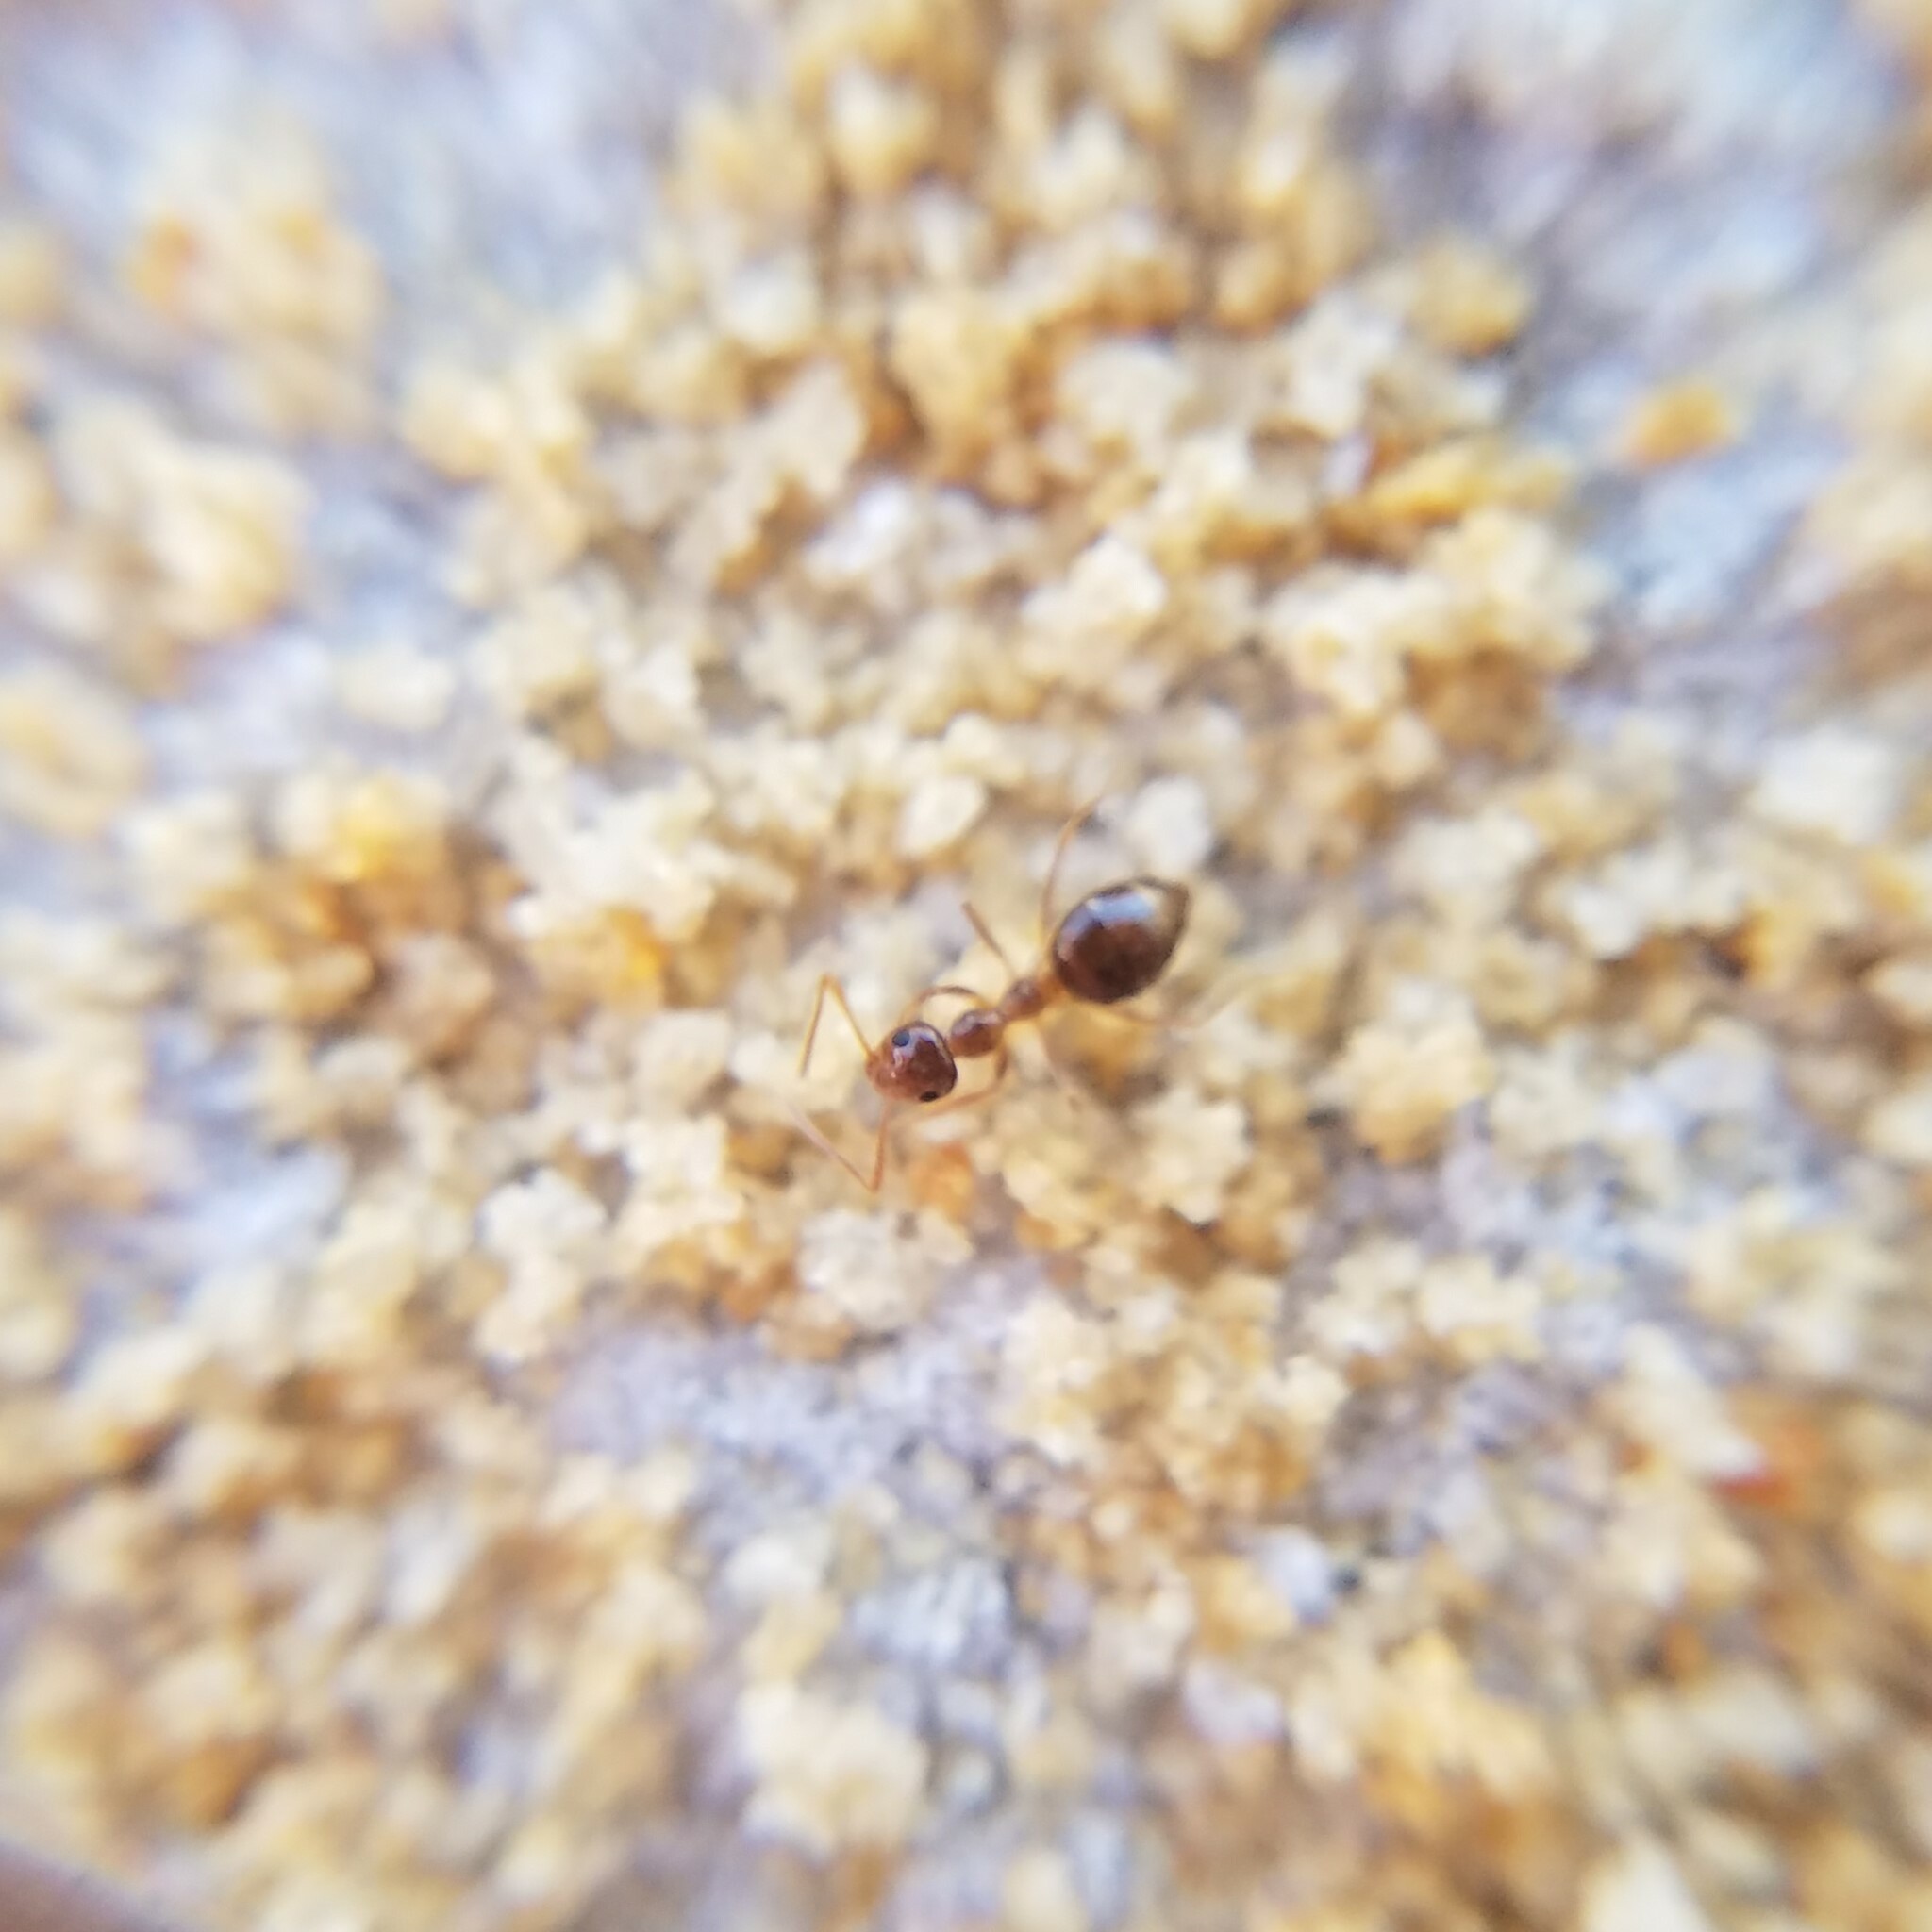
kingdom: Animalia
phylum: Arthropoda
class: Insecta
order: Hymenoptera
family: Formicidae
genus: Prenolepis
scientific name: Prenolepis imparis
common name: Small honey ant
